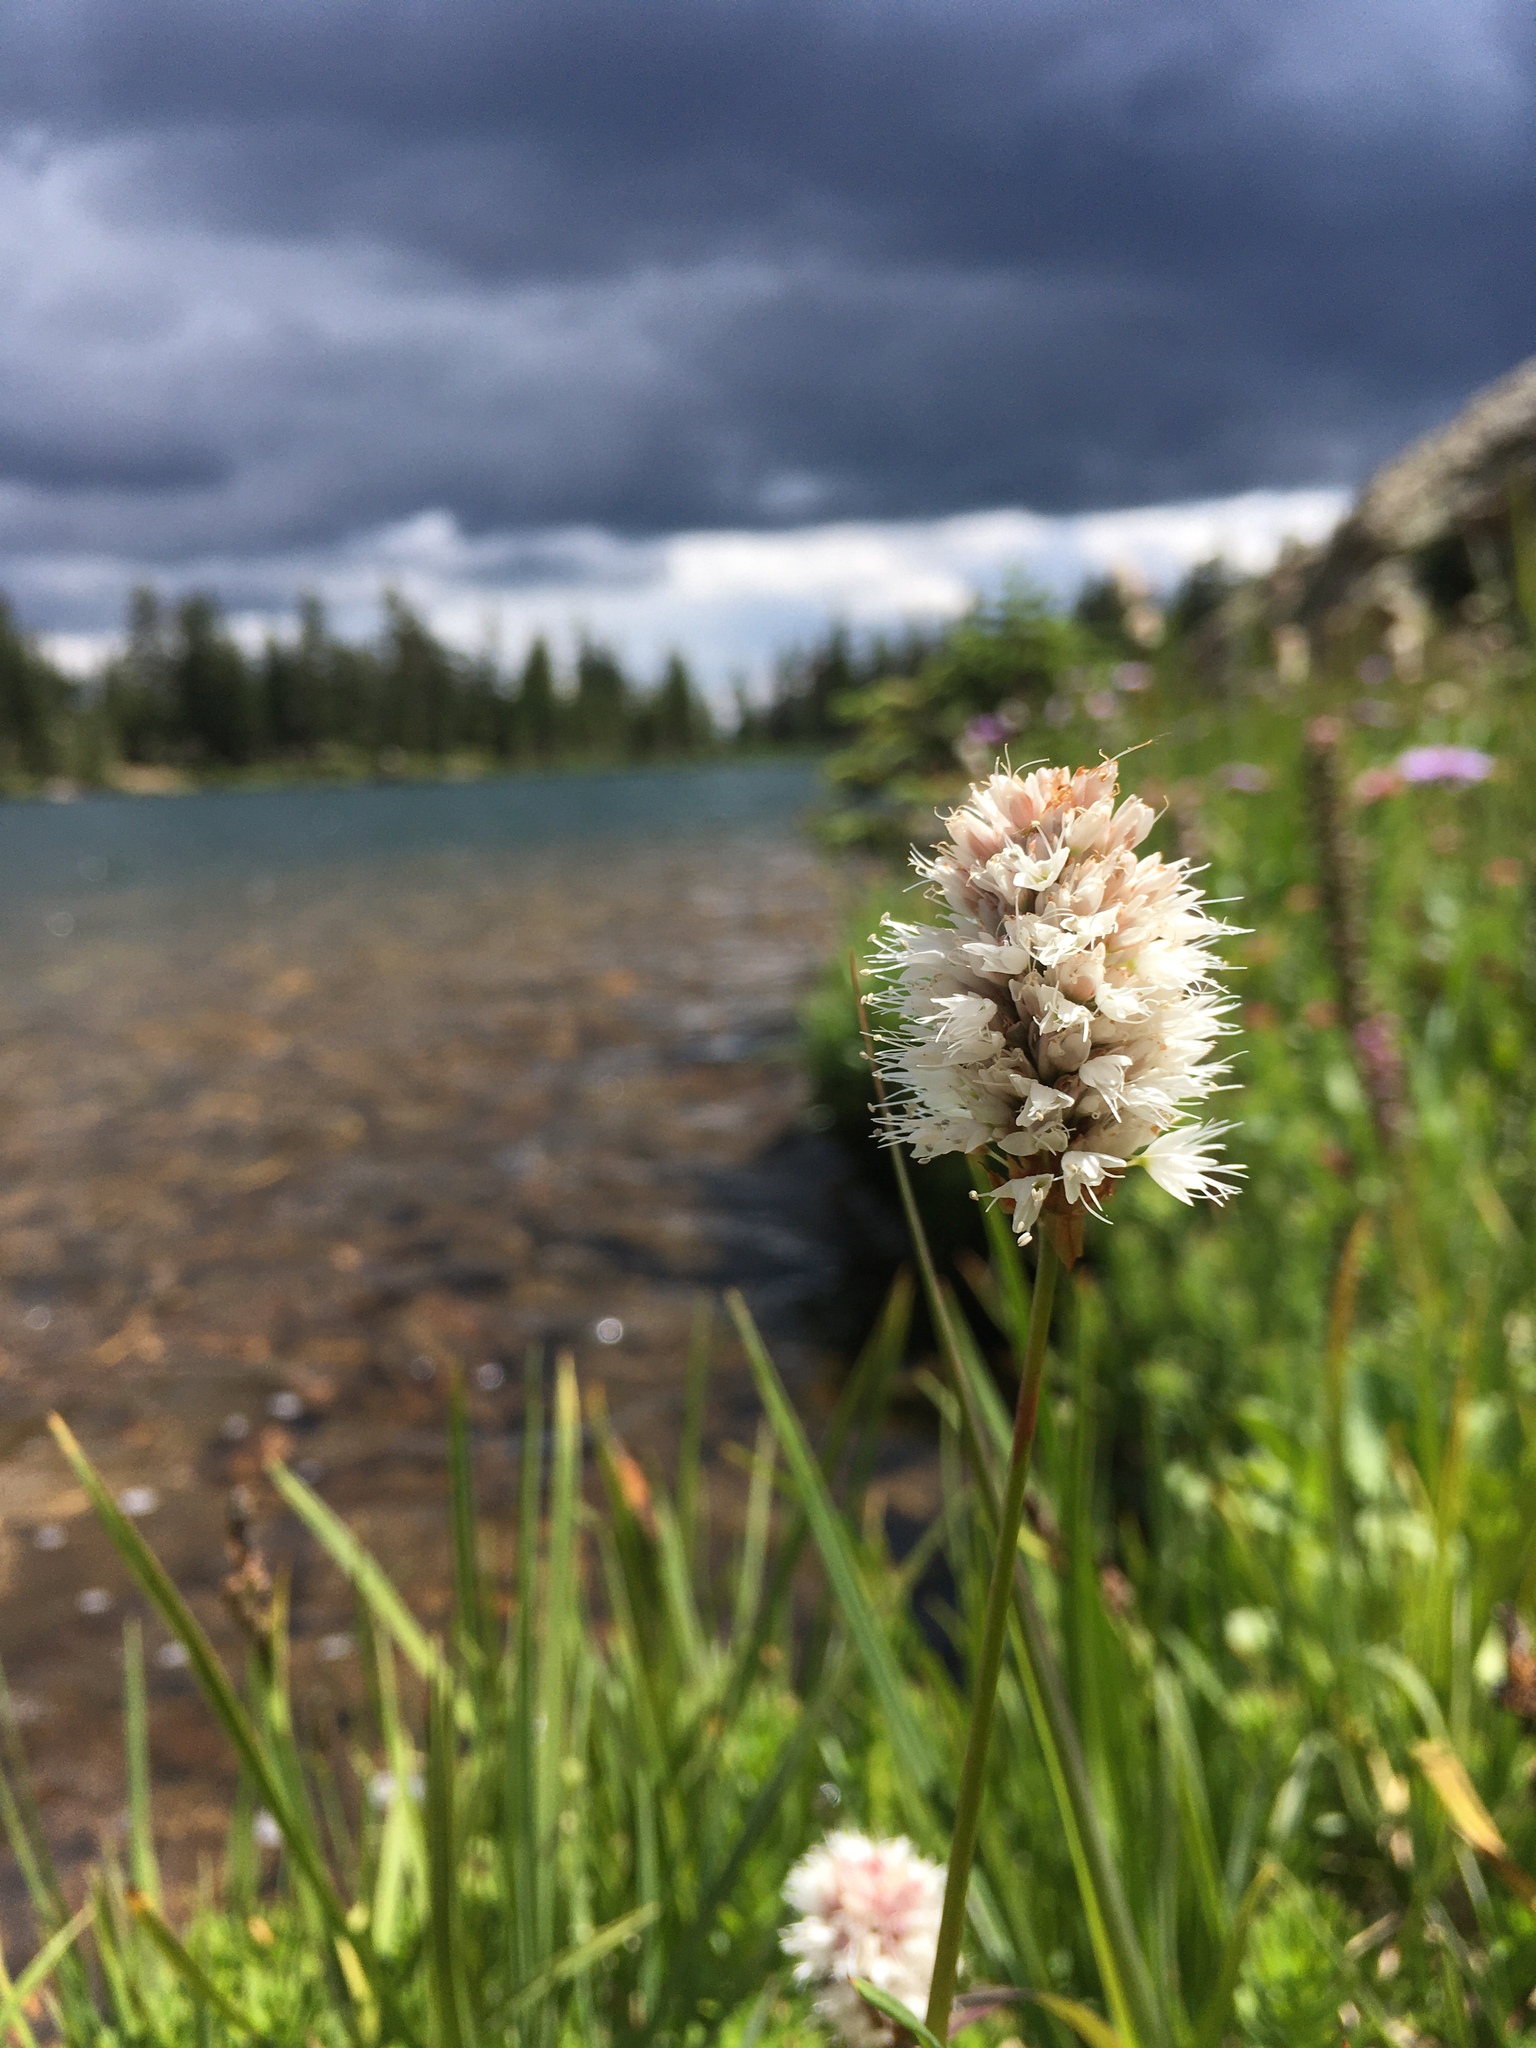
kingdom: Plantae
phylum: Tracheophyta
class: Magnoliopsida
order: Caryophyllales
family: Polygonaceae
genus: Bistorta
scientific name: Bistorta bistortoides
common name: American bistort
